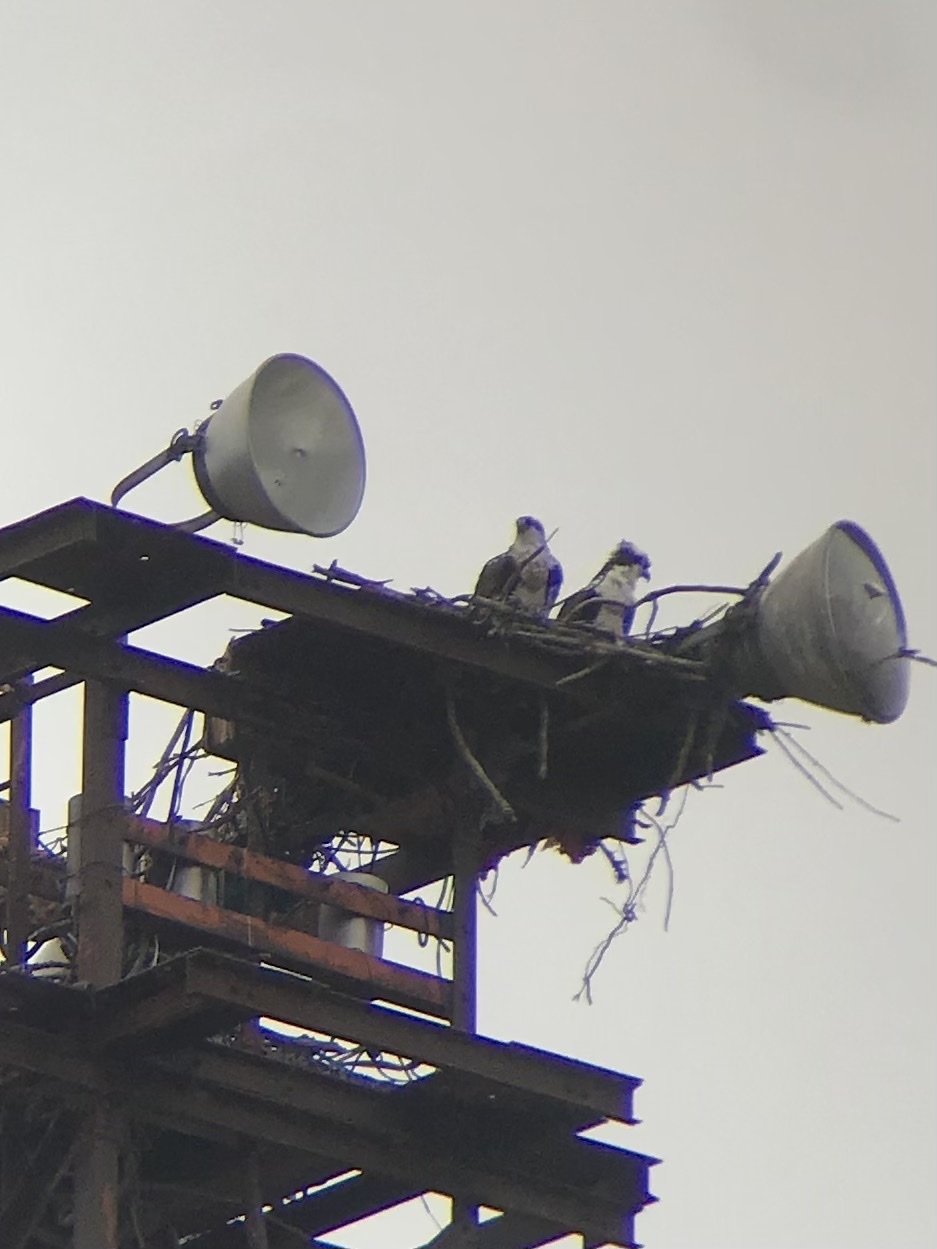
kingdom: Animalia
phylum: Chordata
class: Aves
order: Accipitriformes
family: Pandionidae
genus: Pandion
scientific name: Pandion haliaetus
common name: Osprey
